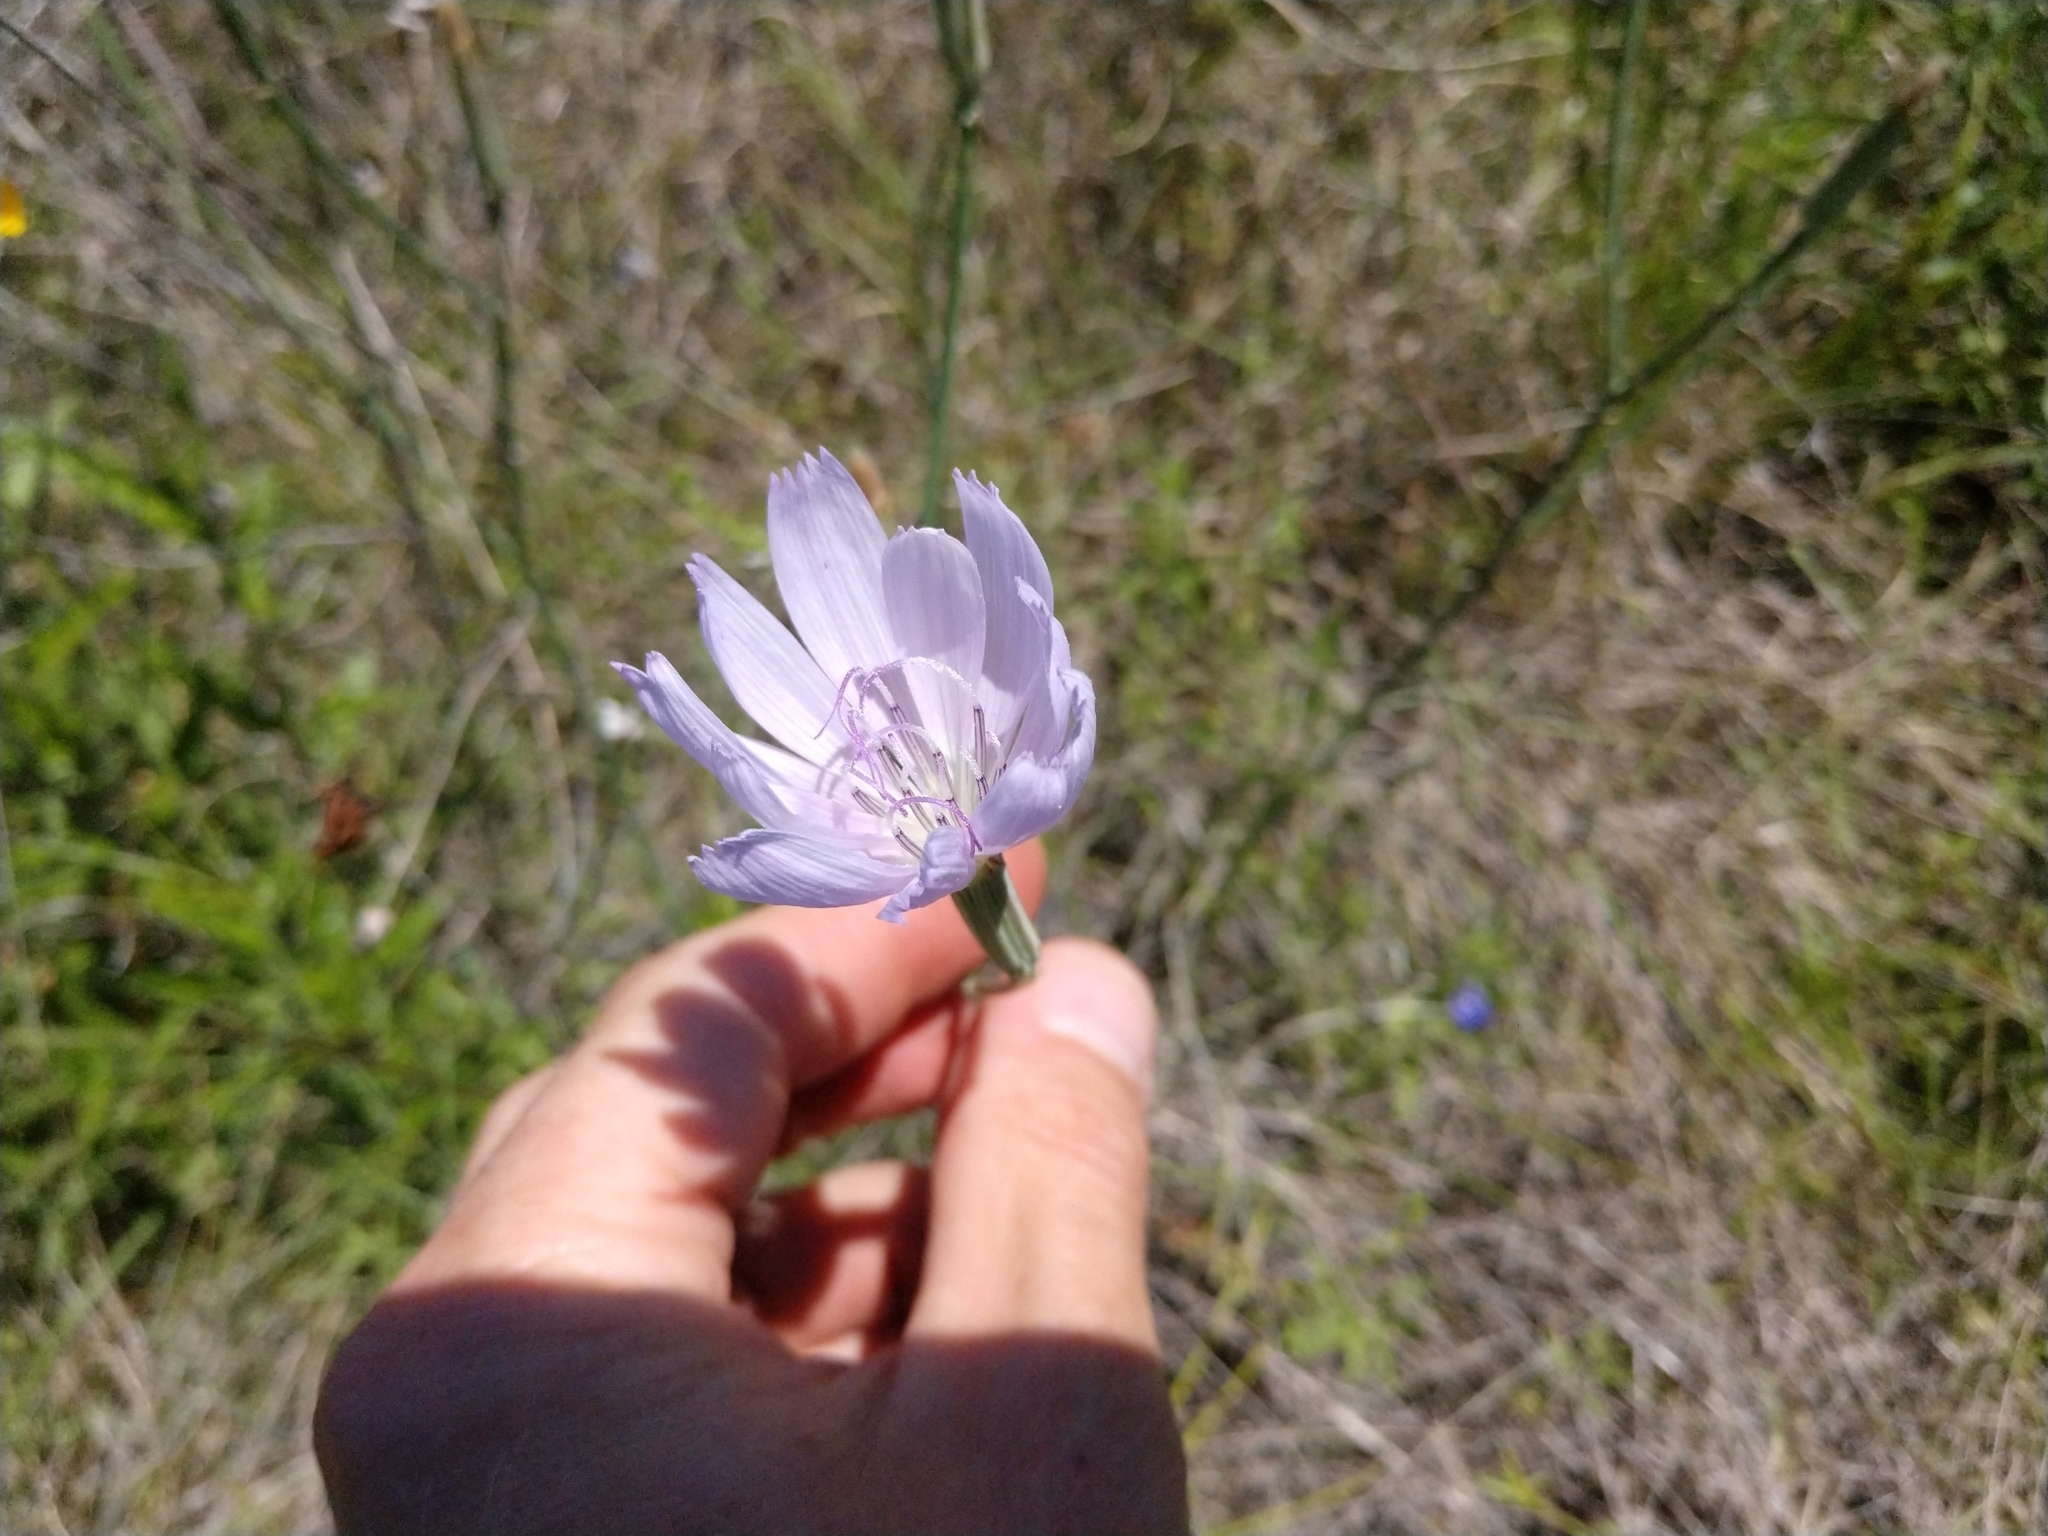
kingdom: Plantae
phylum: Tracheophyta
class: Magnoliopsida
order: Asterales
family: Asteraceae
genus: Lygodesmia
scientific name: Lygodesmia texana
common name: Texas skeleton-plant
